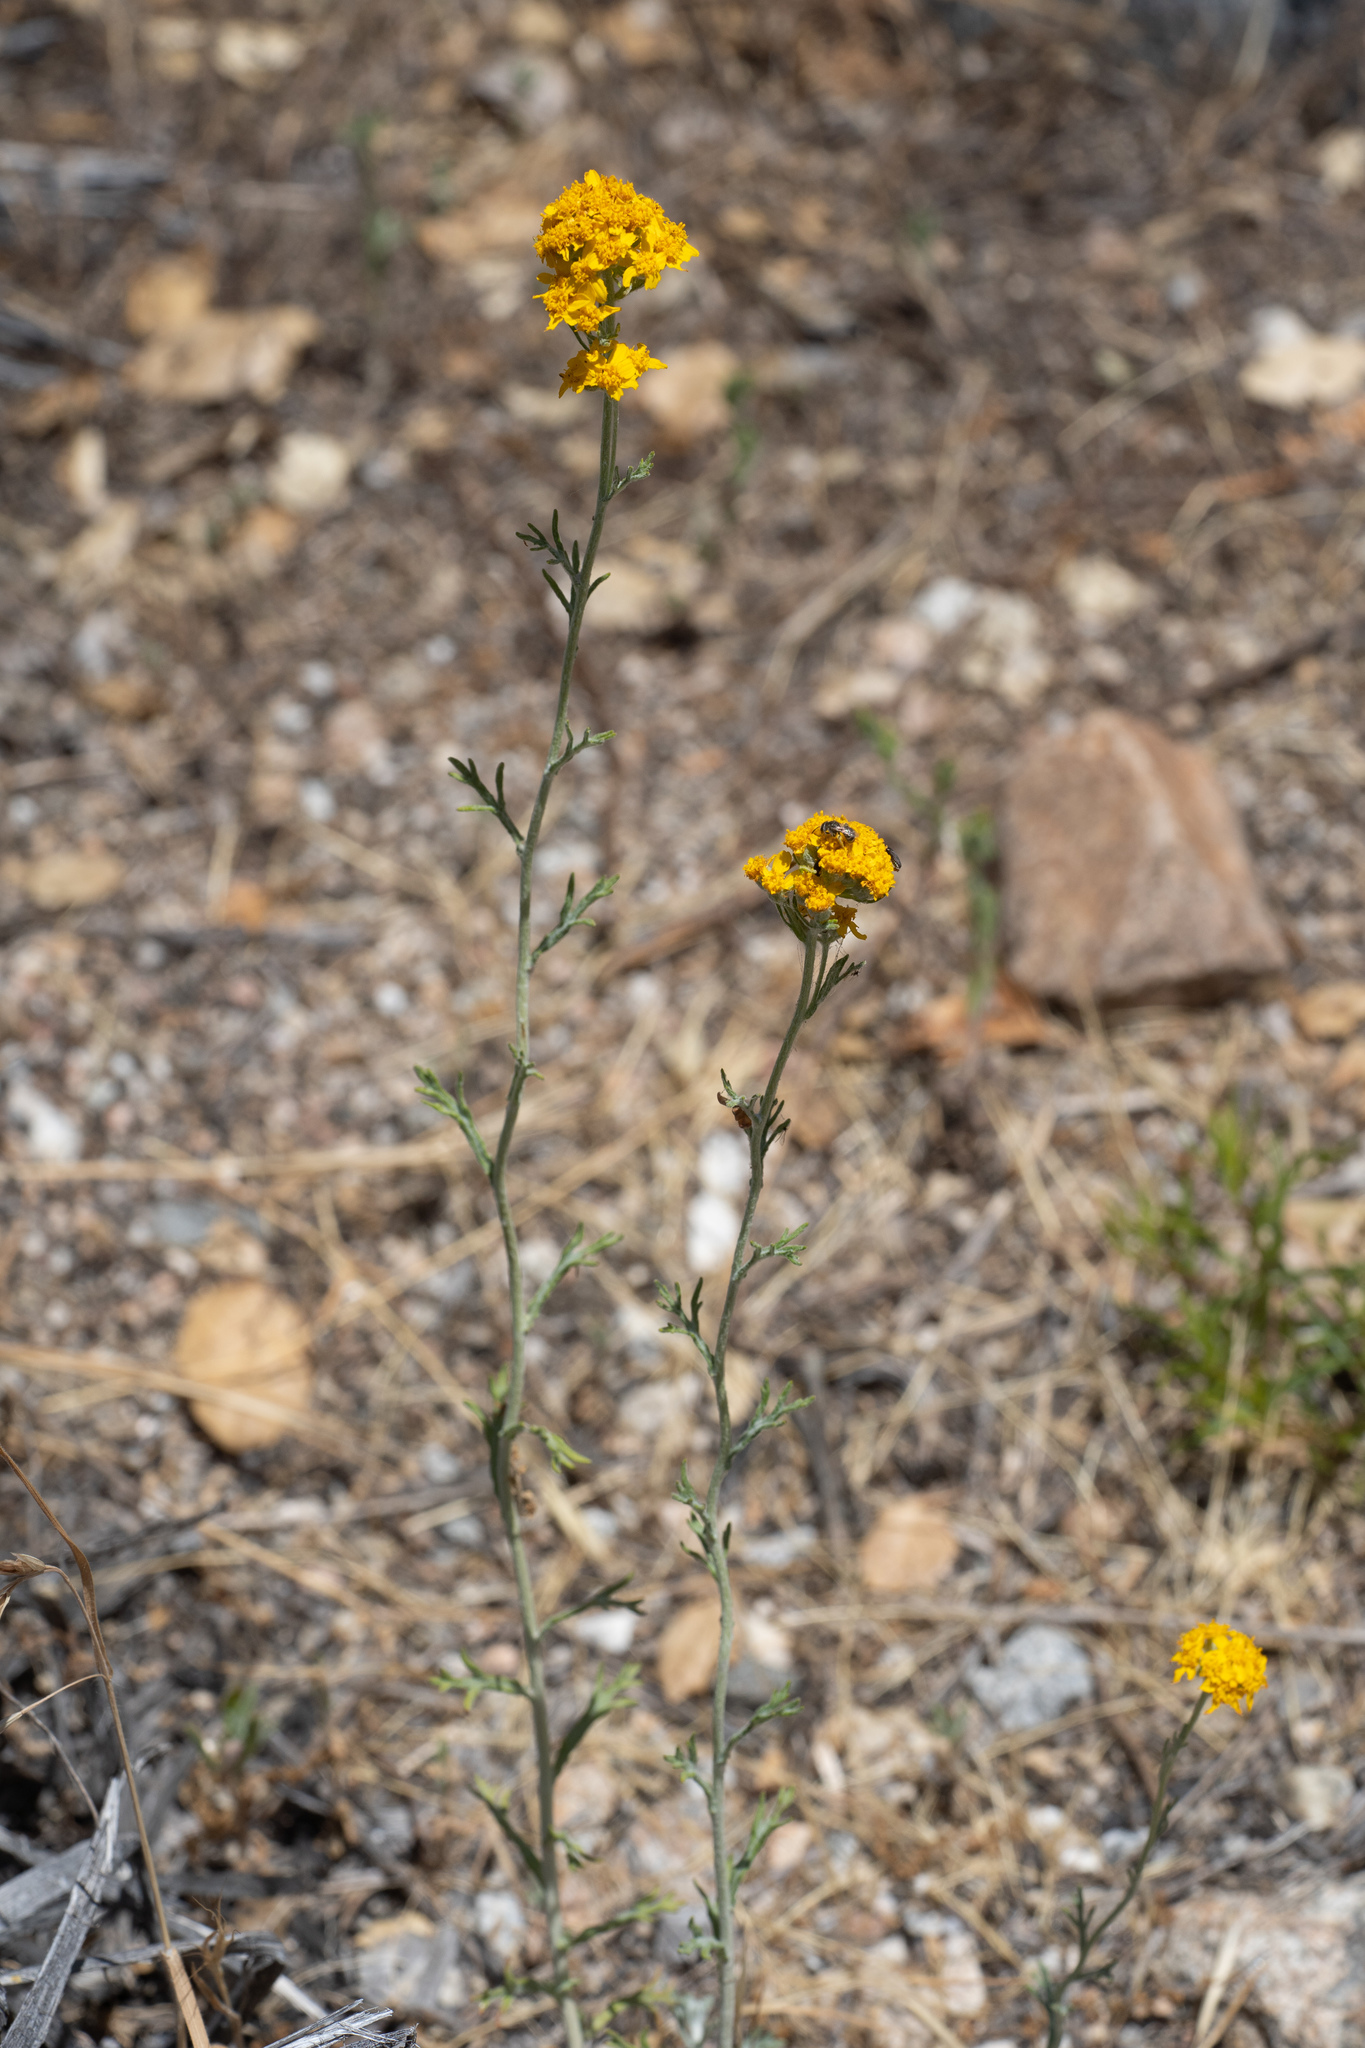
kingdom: Plantae
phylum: Tracheophyta
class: Magnoliopsida
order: Asterales
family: Asteraceae
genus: Eriophyllum
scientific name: Eriophyllum confertiflorum
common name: Golden-yarrow
